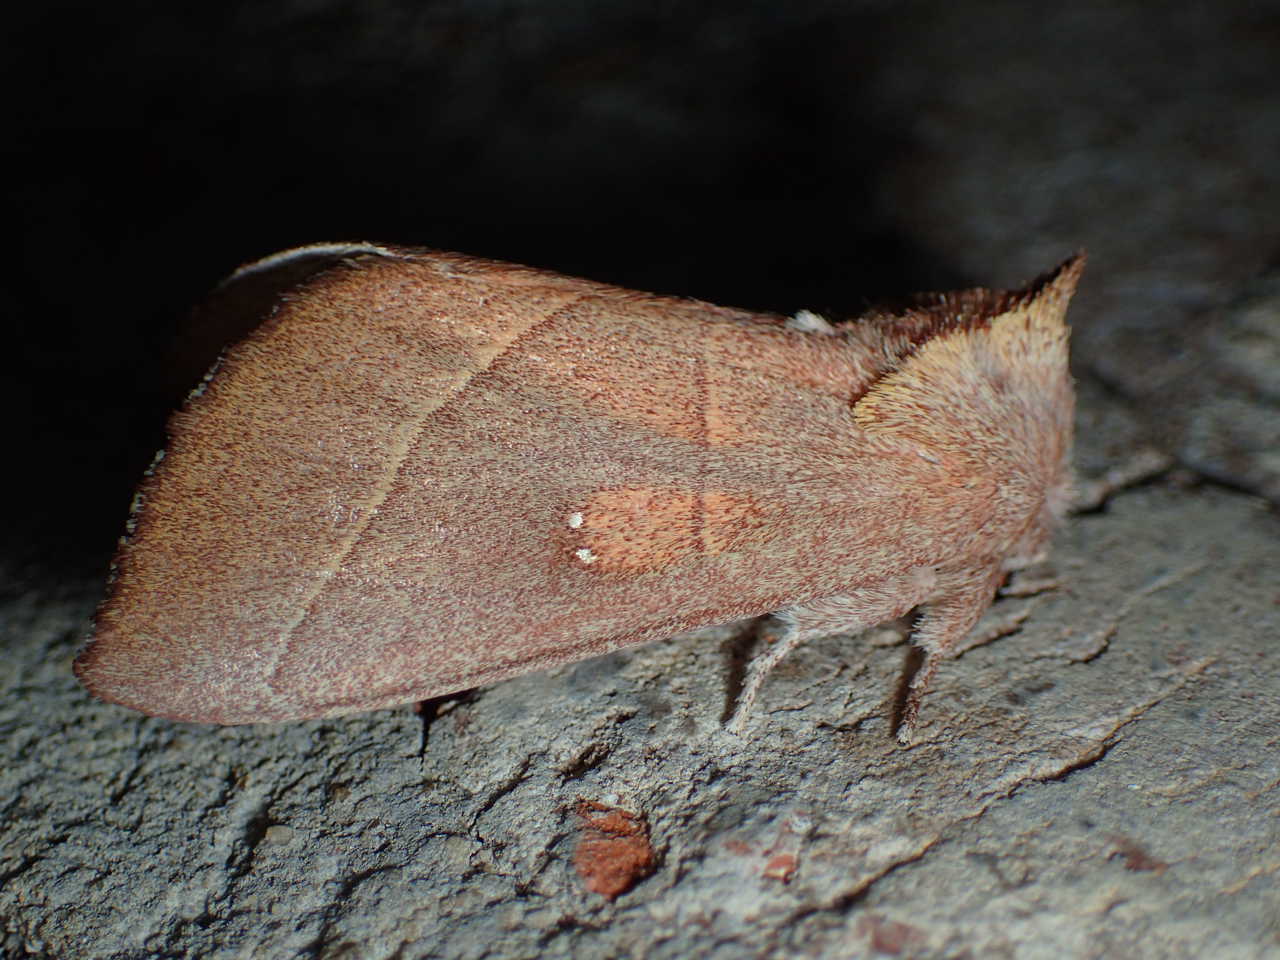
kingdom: Animalia
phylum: Arthropoda
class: Insecta
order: Lepidoptera
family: Notodontidae
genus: Nadata
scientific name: Nadata gibbosa
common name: White-dotted prominent
